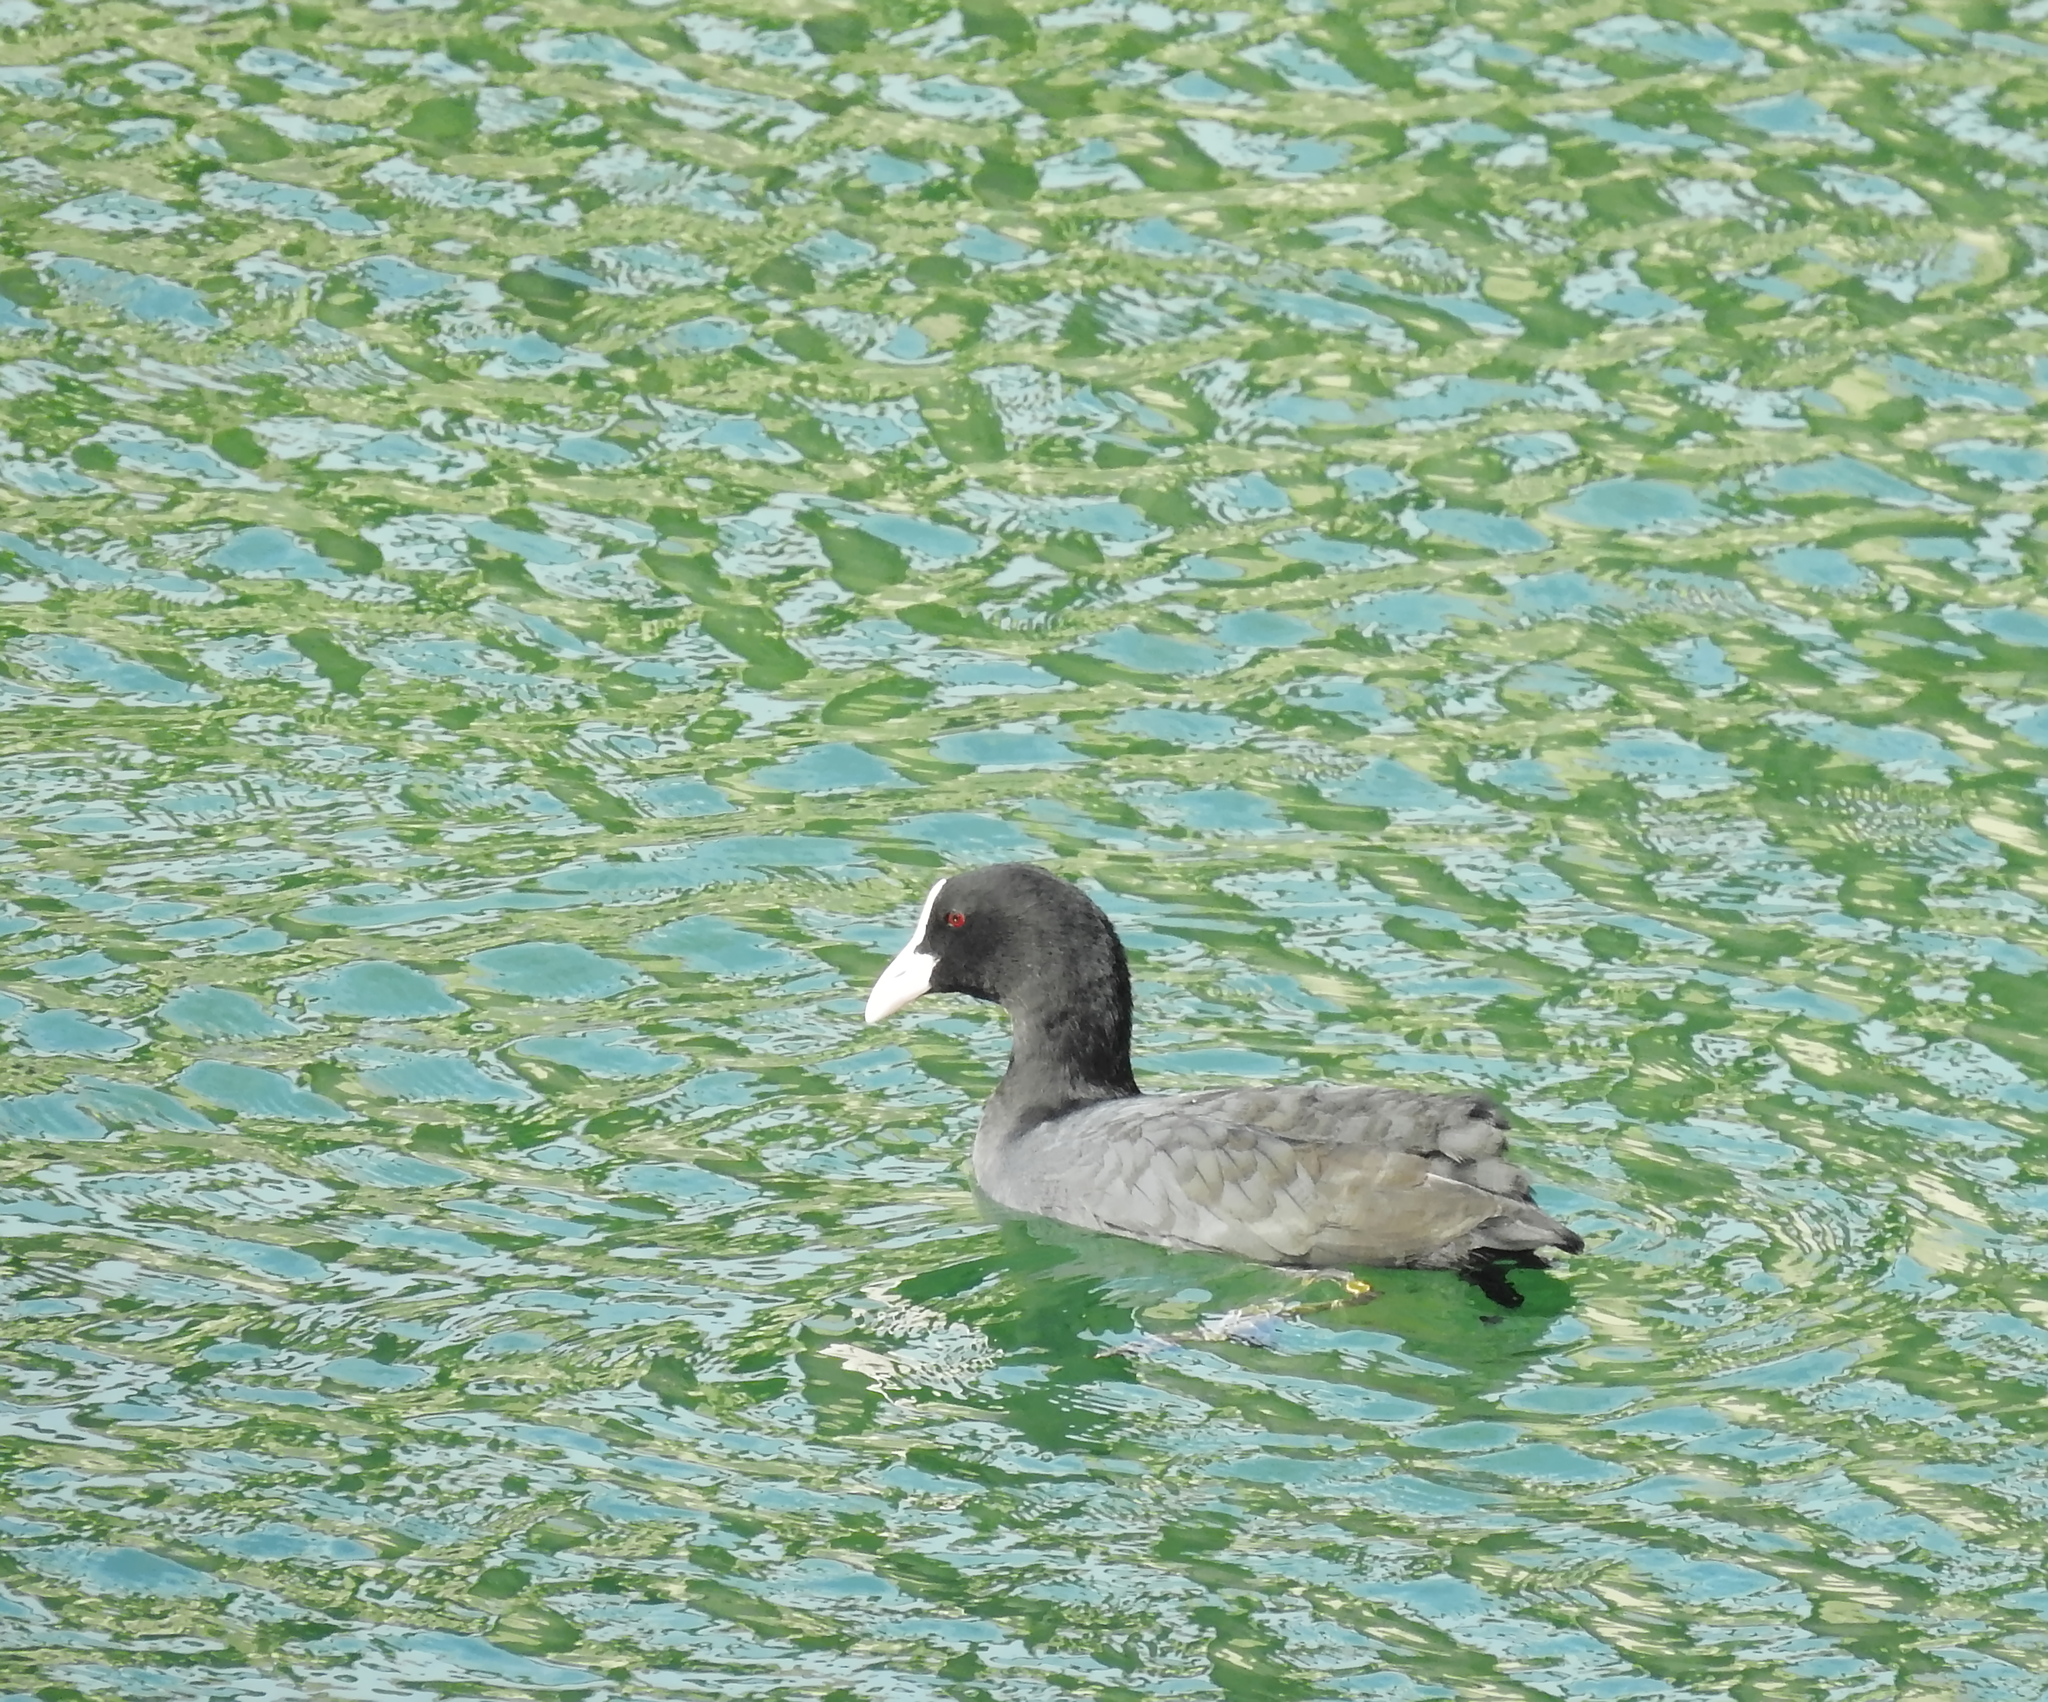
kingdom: Animalia
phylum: Chordata
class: Aves
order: Gruiformes
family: Rallidae
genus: Fulica
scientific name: Fulica atra
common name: Eurasian coot
